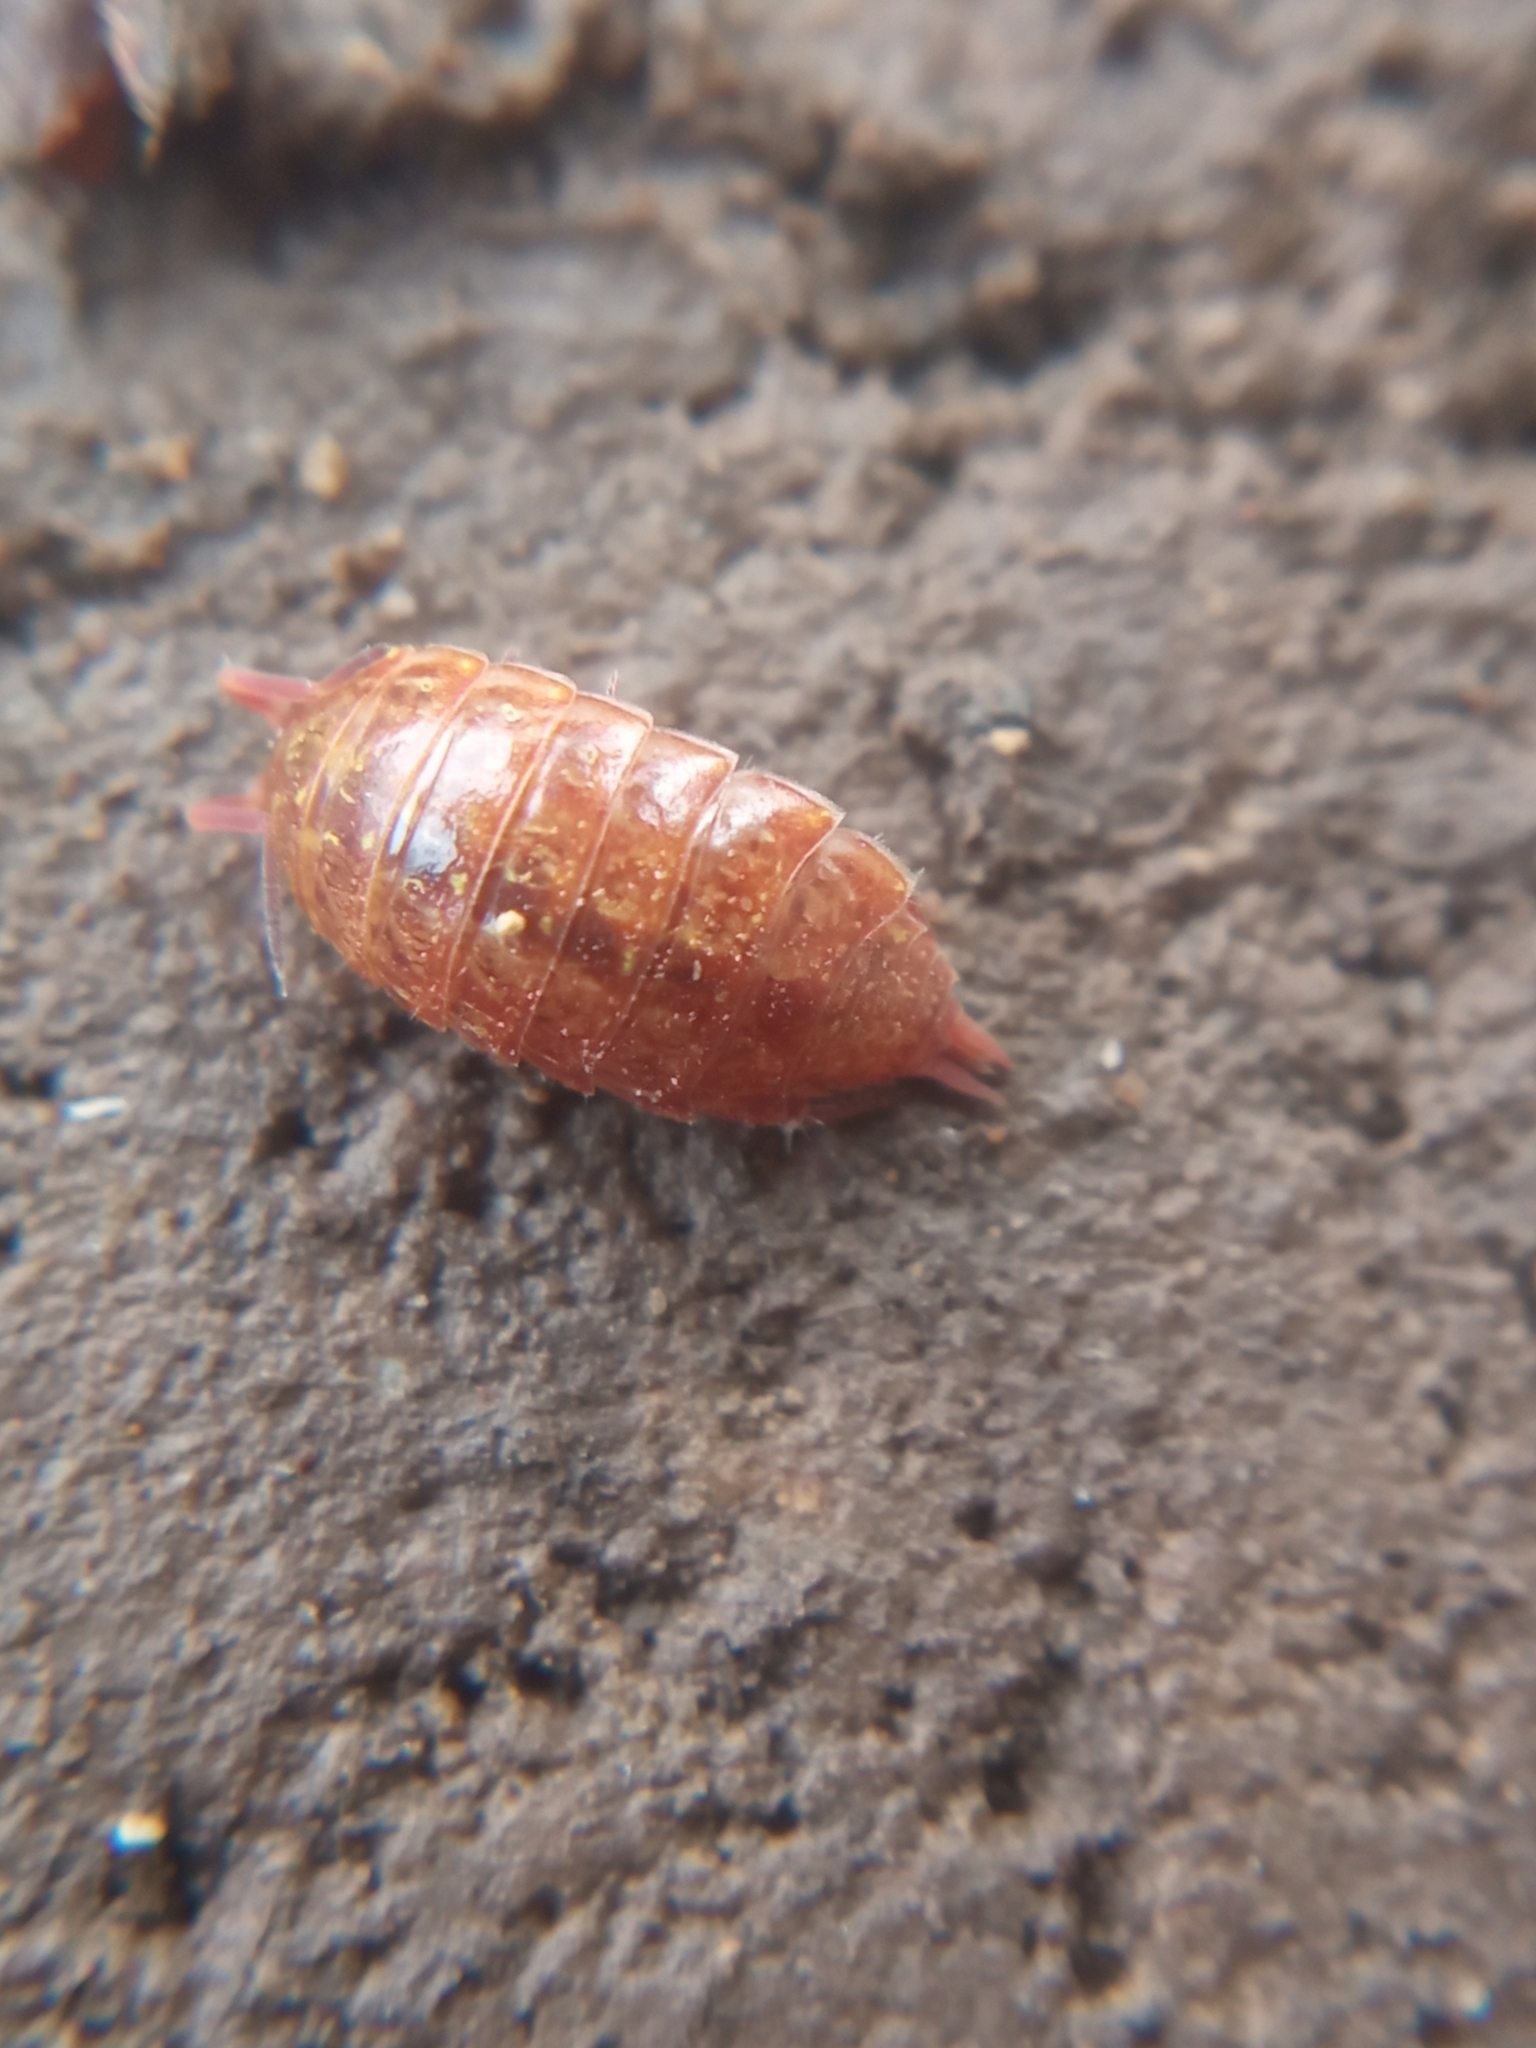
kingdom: Animalia
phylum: Arthropoda
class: Malacostraca
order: Isopoda
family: Philosciidae
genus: Philoscia
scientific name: Philoscia muscorum
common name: Common striped woodlouse
